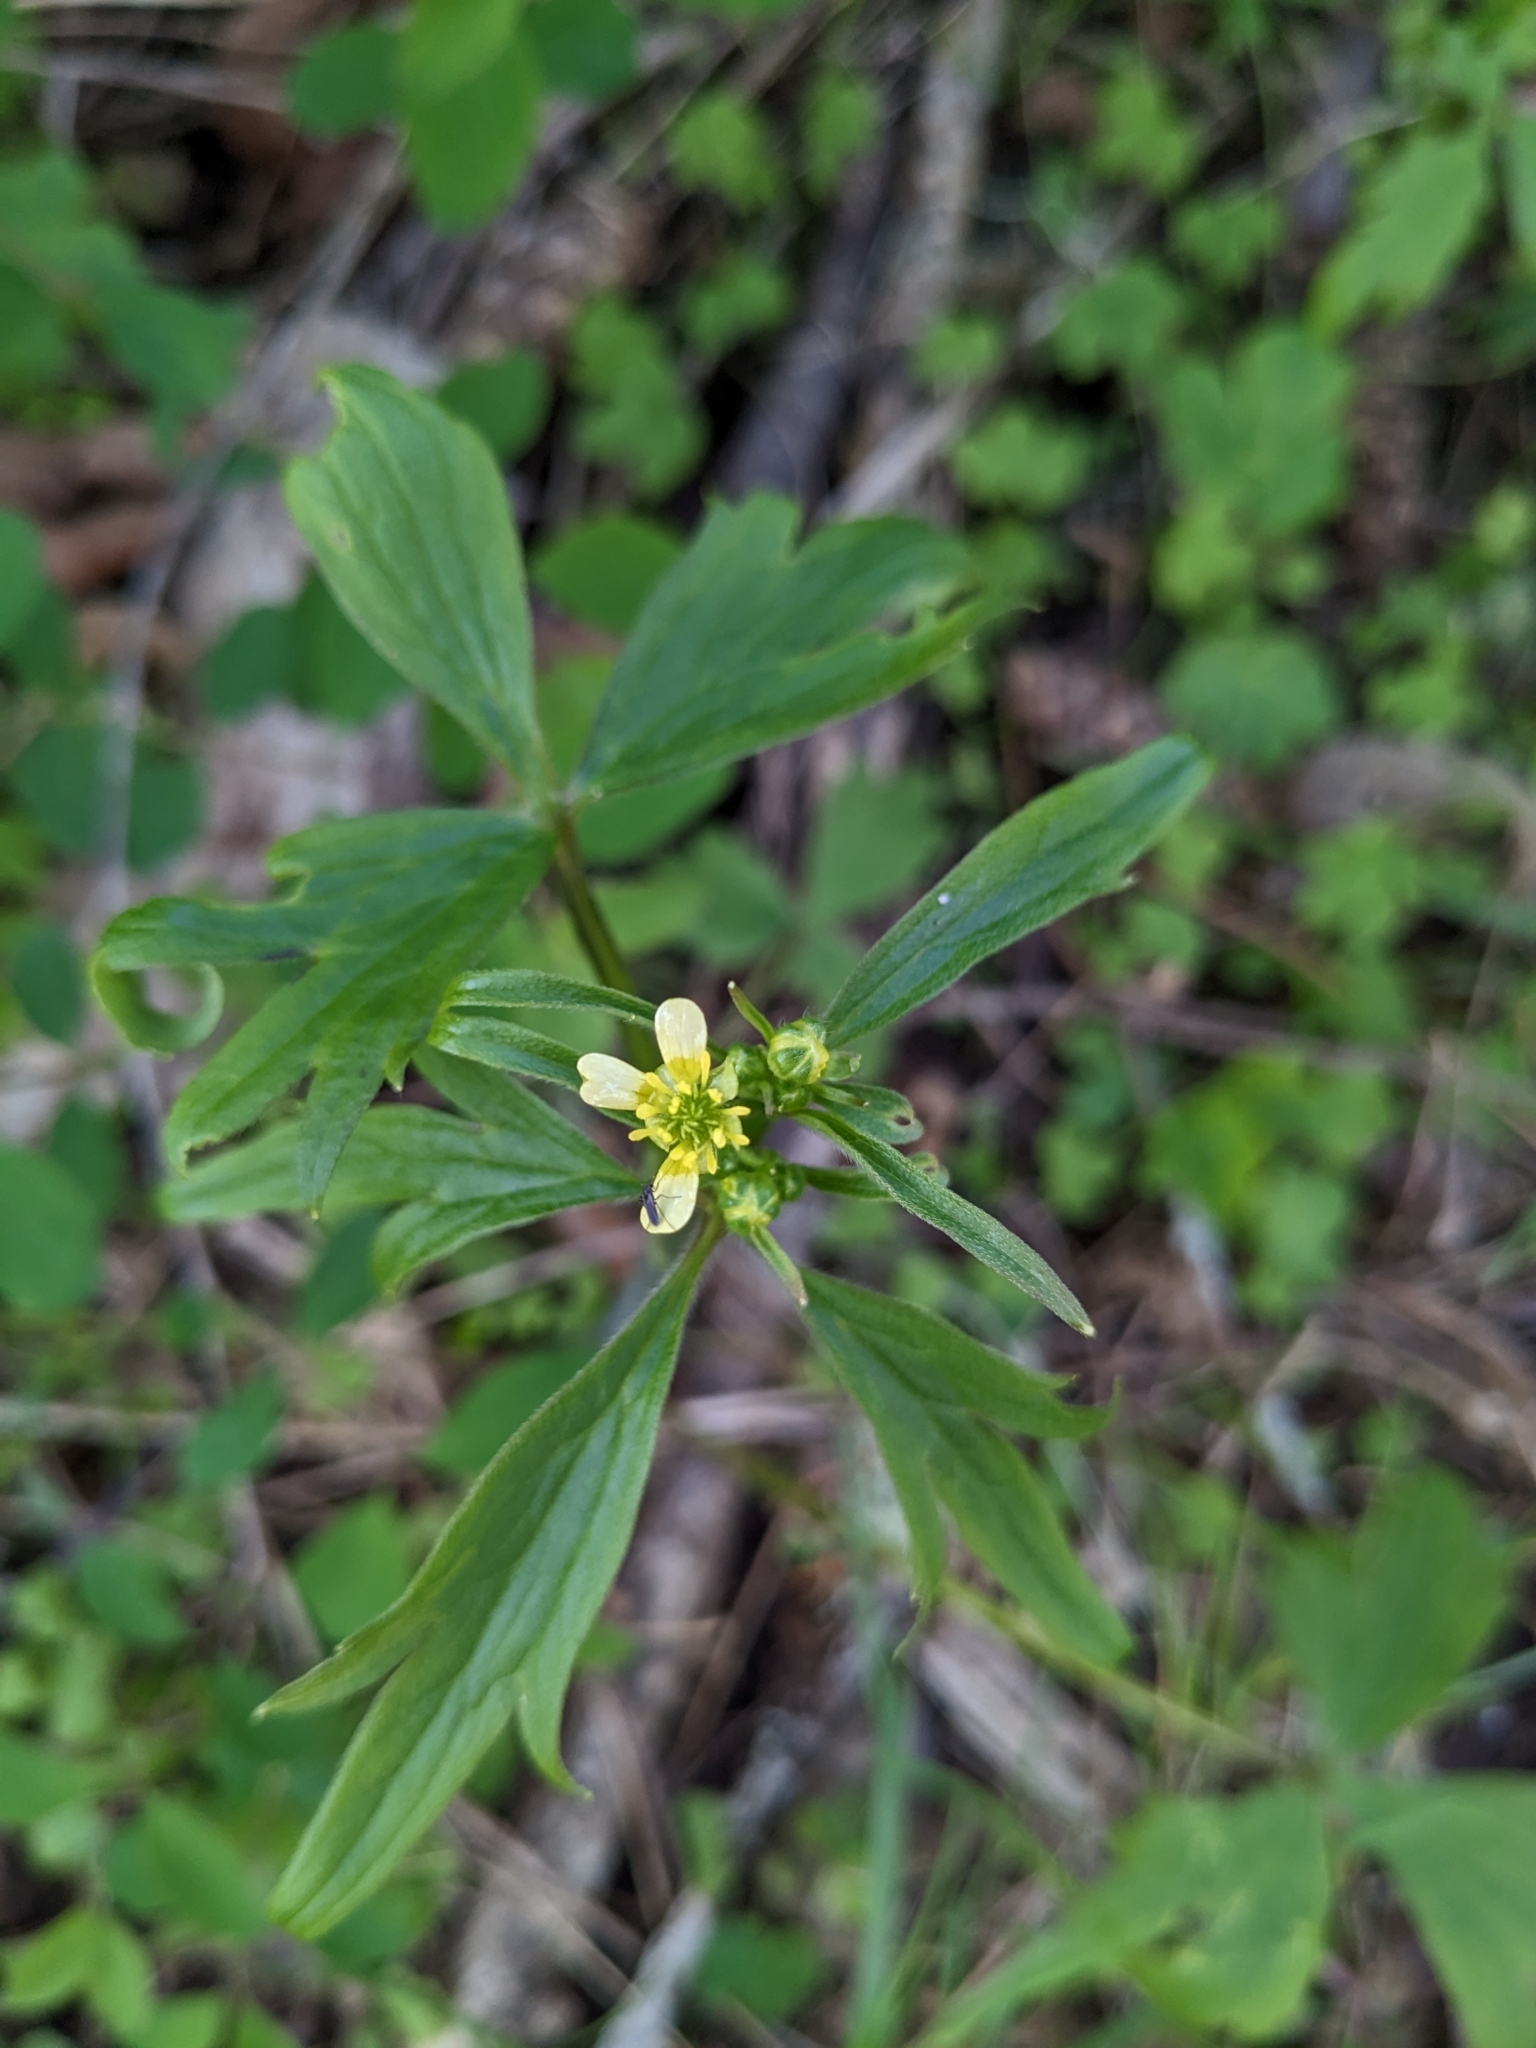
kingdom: Plantae
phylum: Tracheophyta
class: Magnoliopsida
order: Ranunculales
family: Ranunculaceae
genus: Ranunculus
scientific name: Ranunculus uncinatus
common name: Little buttercup
